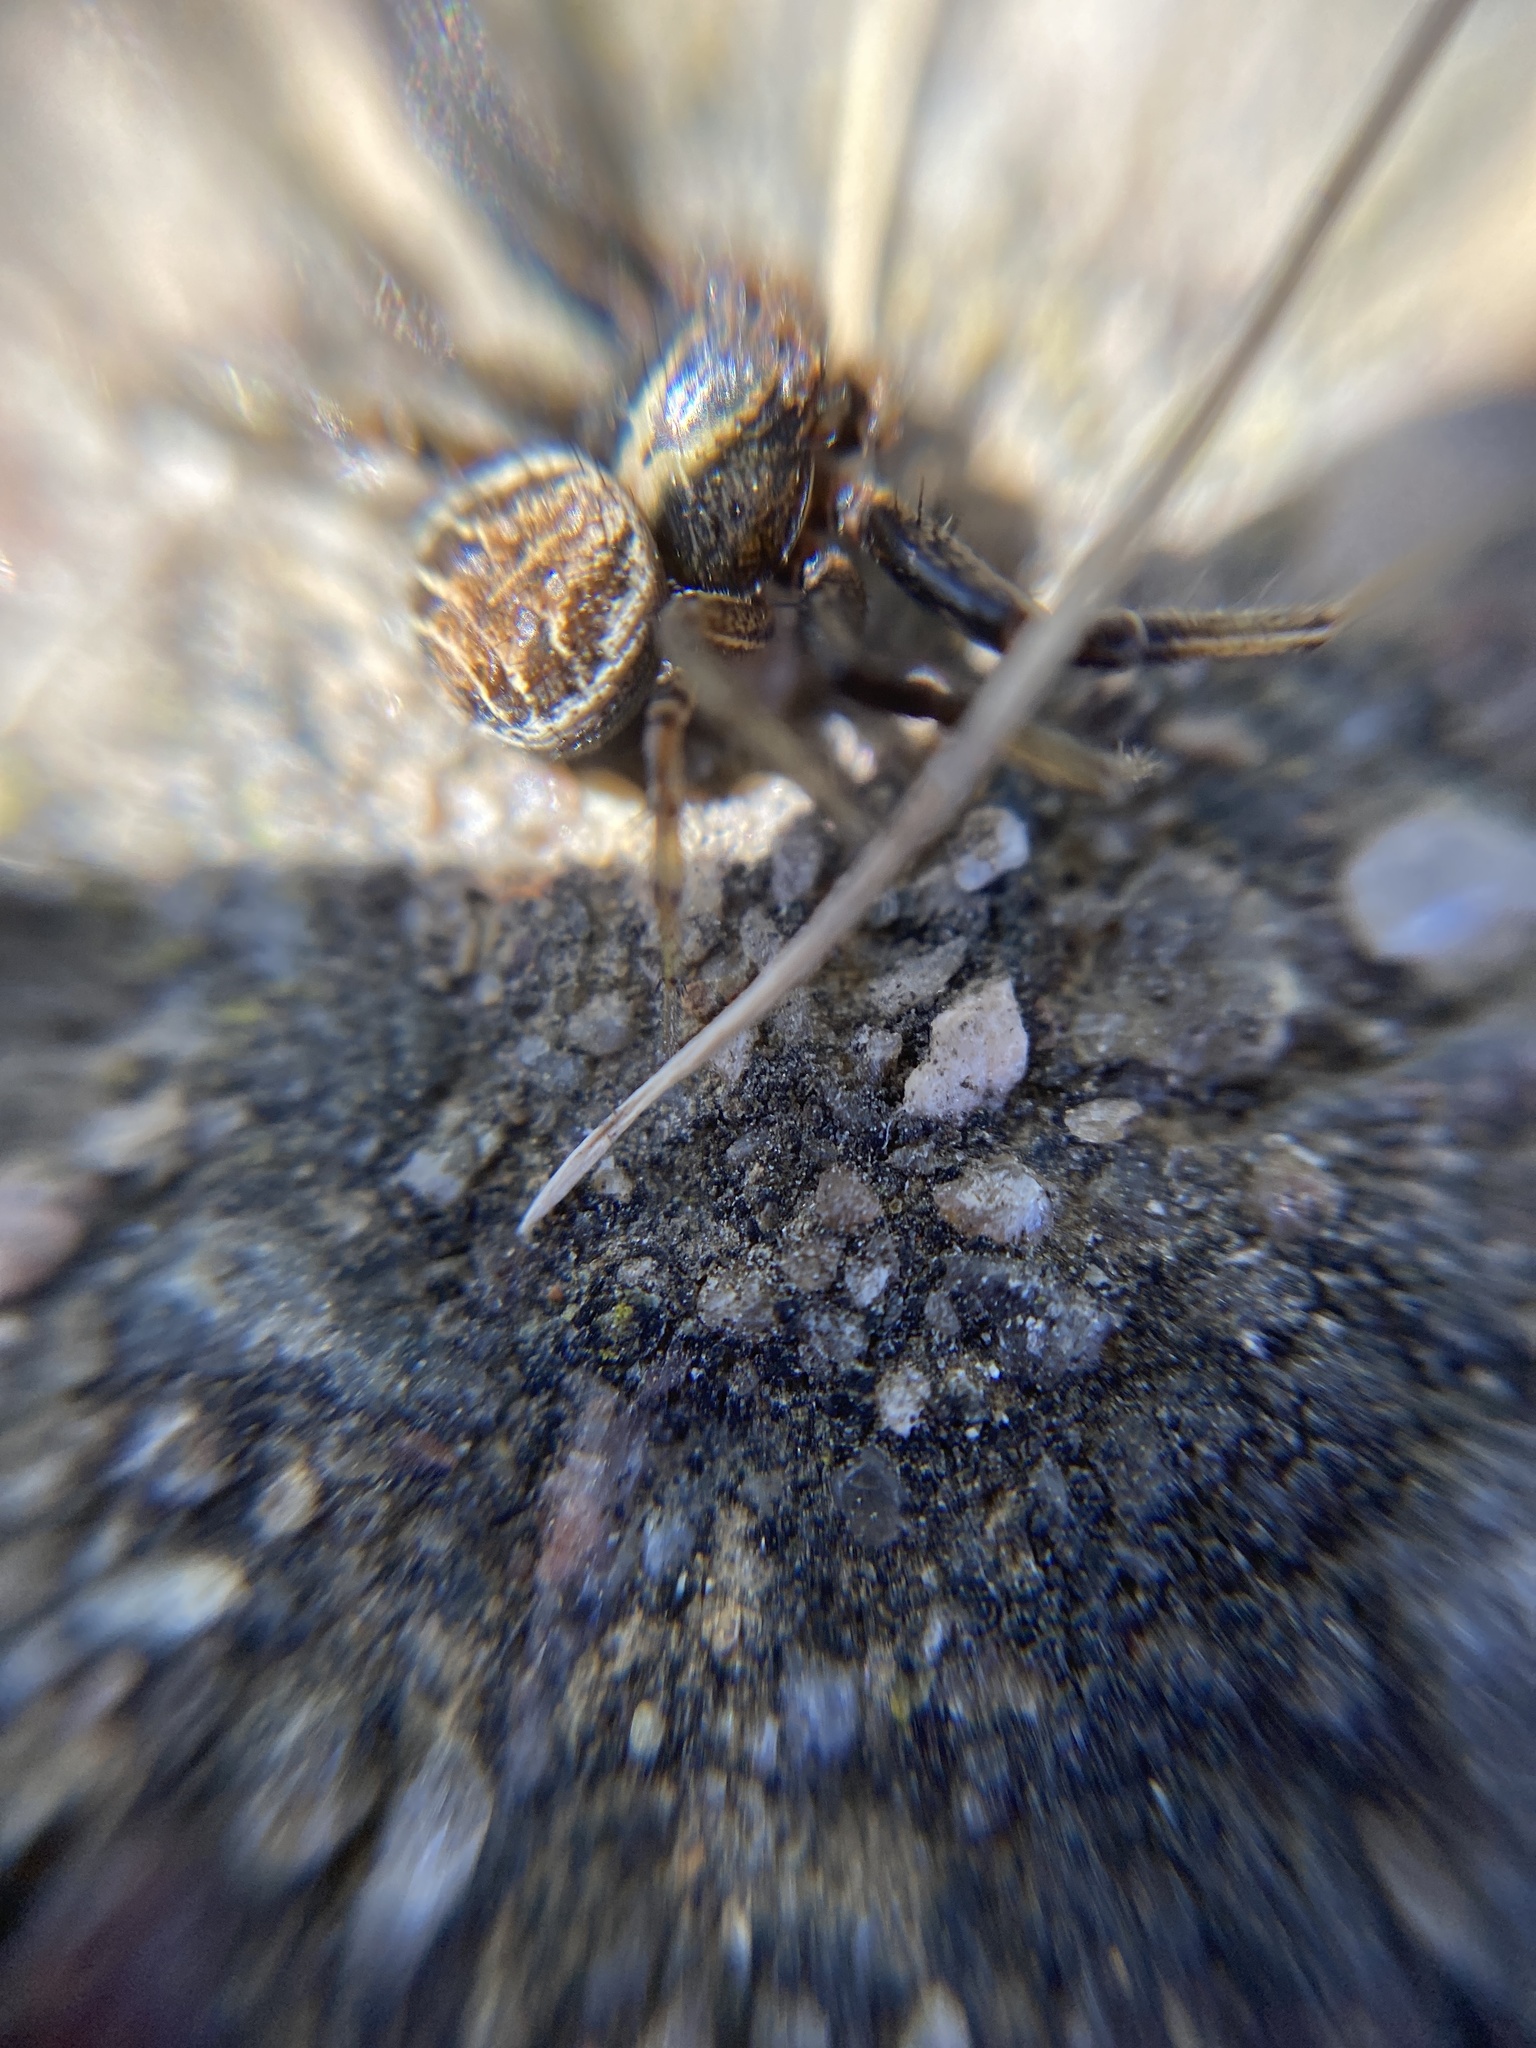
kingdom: Animalia
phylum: Arthropoda
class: Arachnida
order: Araneae
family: Thomisidae
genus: Xysticus
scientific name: Xysticus
